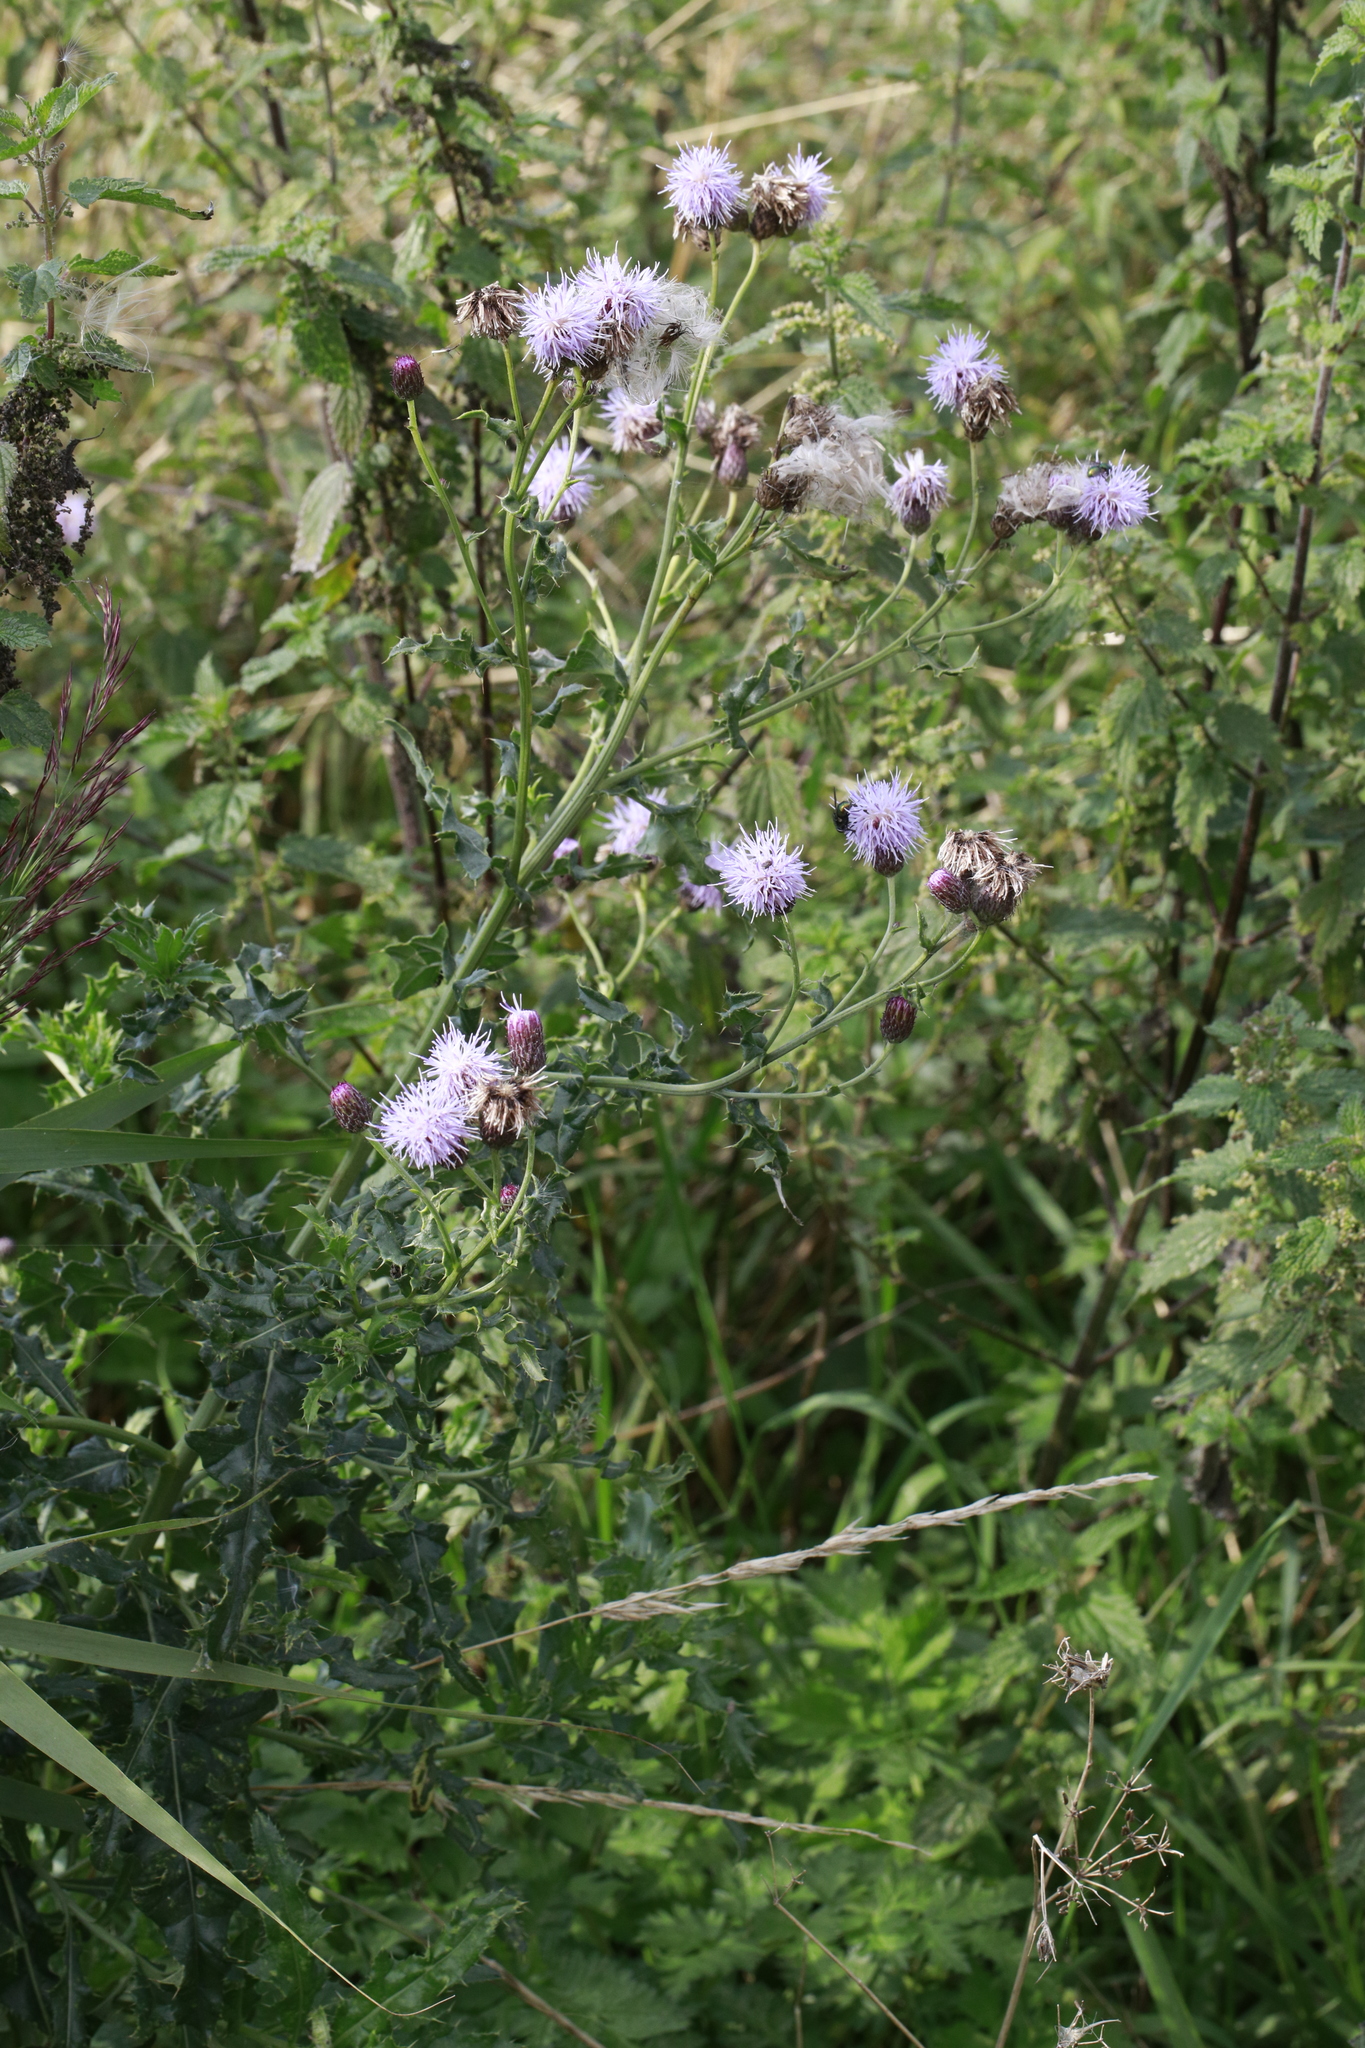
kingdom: Plantae
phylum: Tracheophyta
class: Magnoliopsida
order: Asterales
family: Asteraceae
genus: Cirsium
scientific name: Cirsium arvense
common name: Creeping thistle
